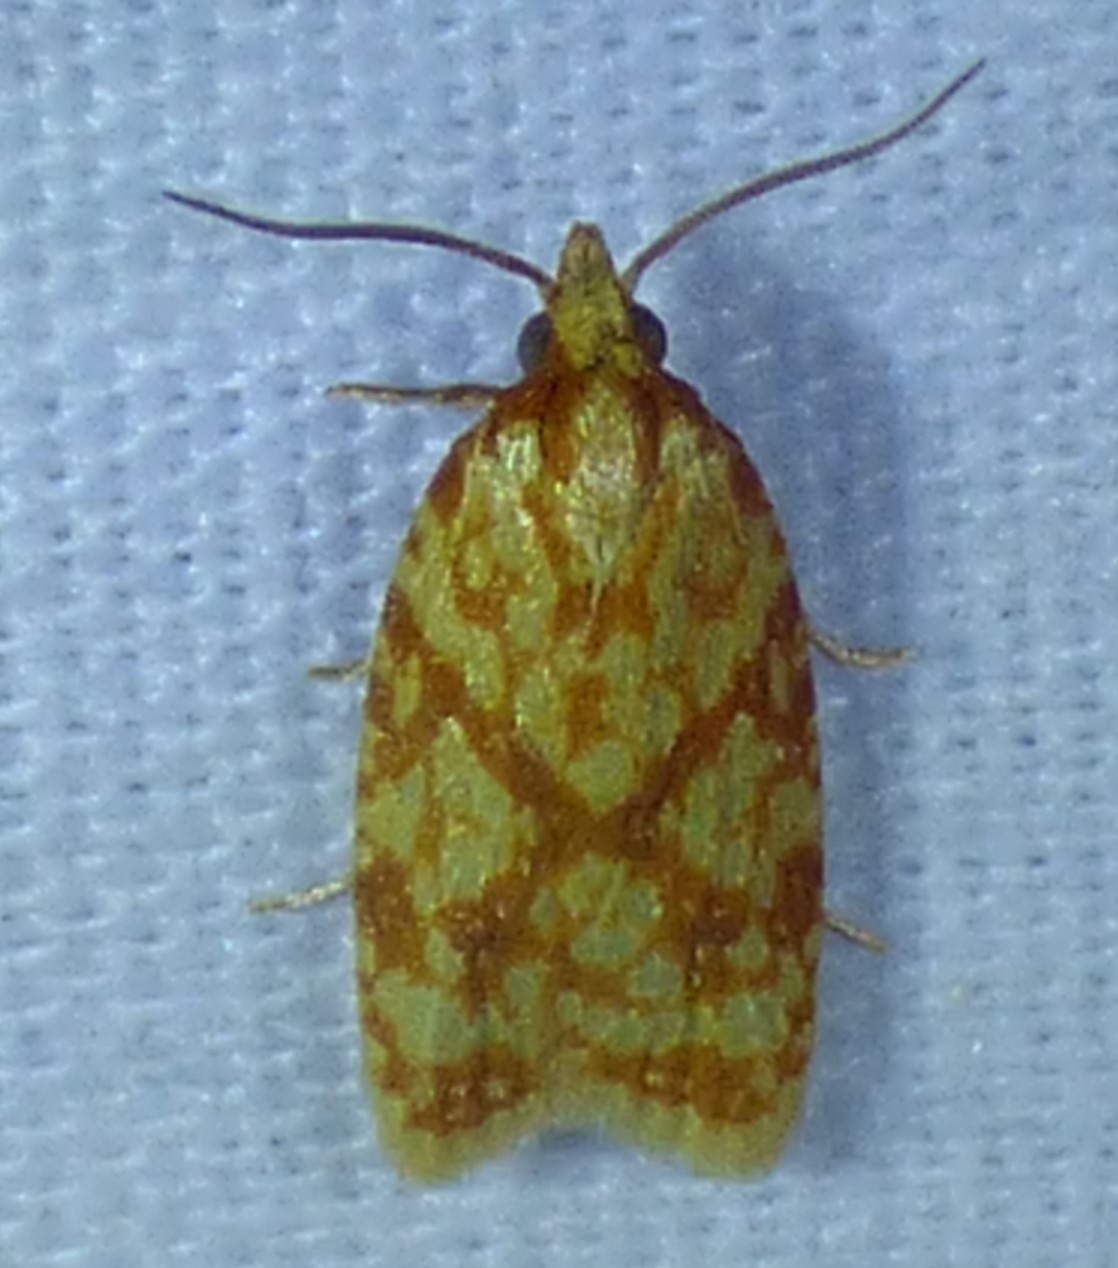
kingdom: Animalia
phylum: Arthropoda
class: Insecta
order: Lepidoptera
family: Tortricidae
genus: Sparganothis
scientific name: Sparganothis sulfureana
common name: Sparganothis fruitworm moth
